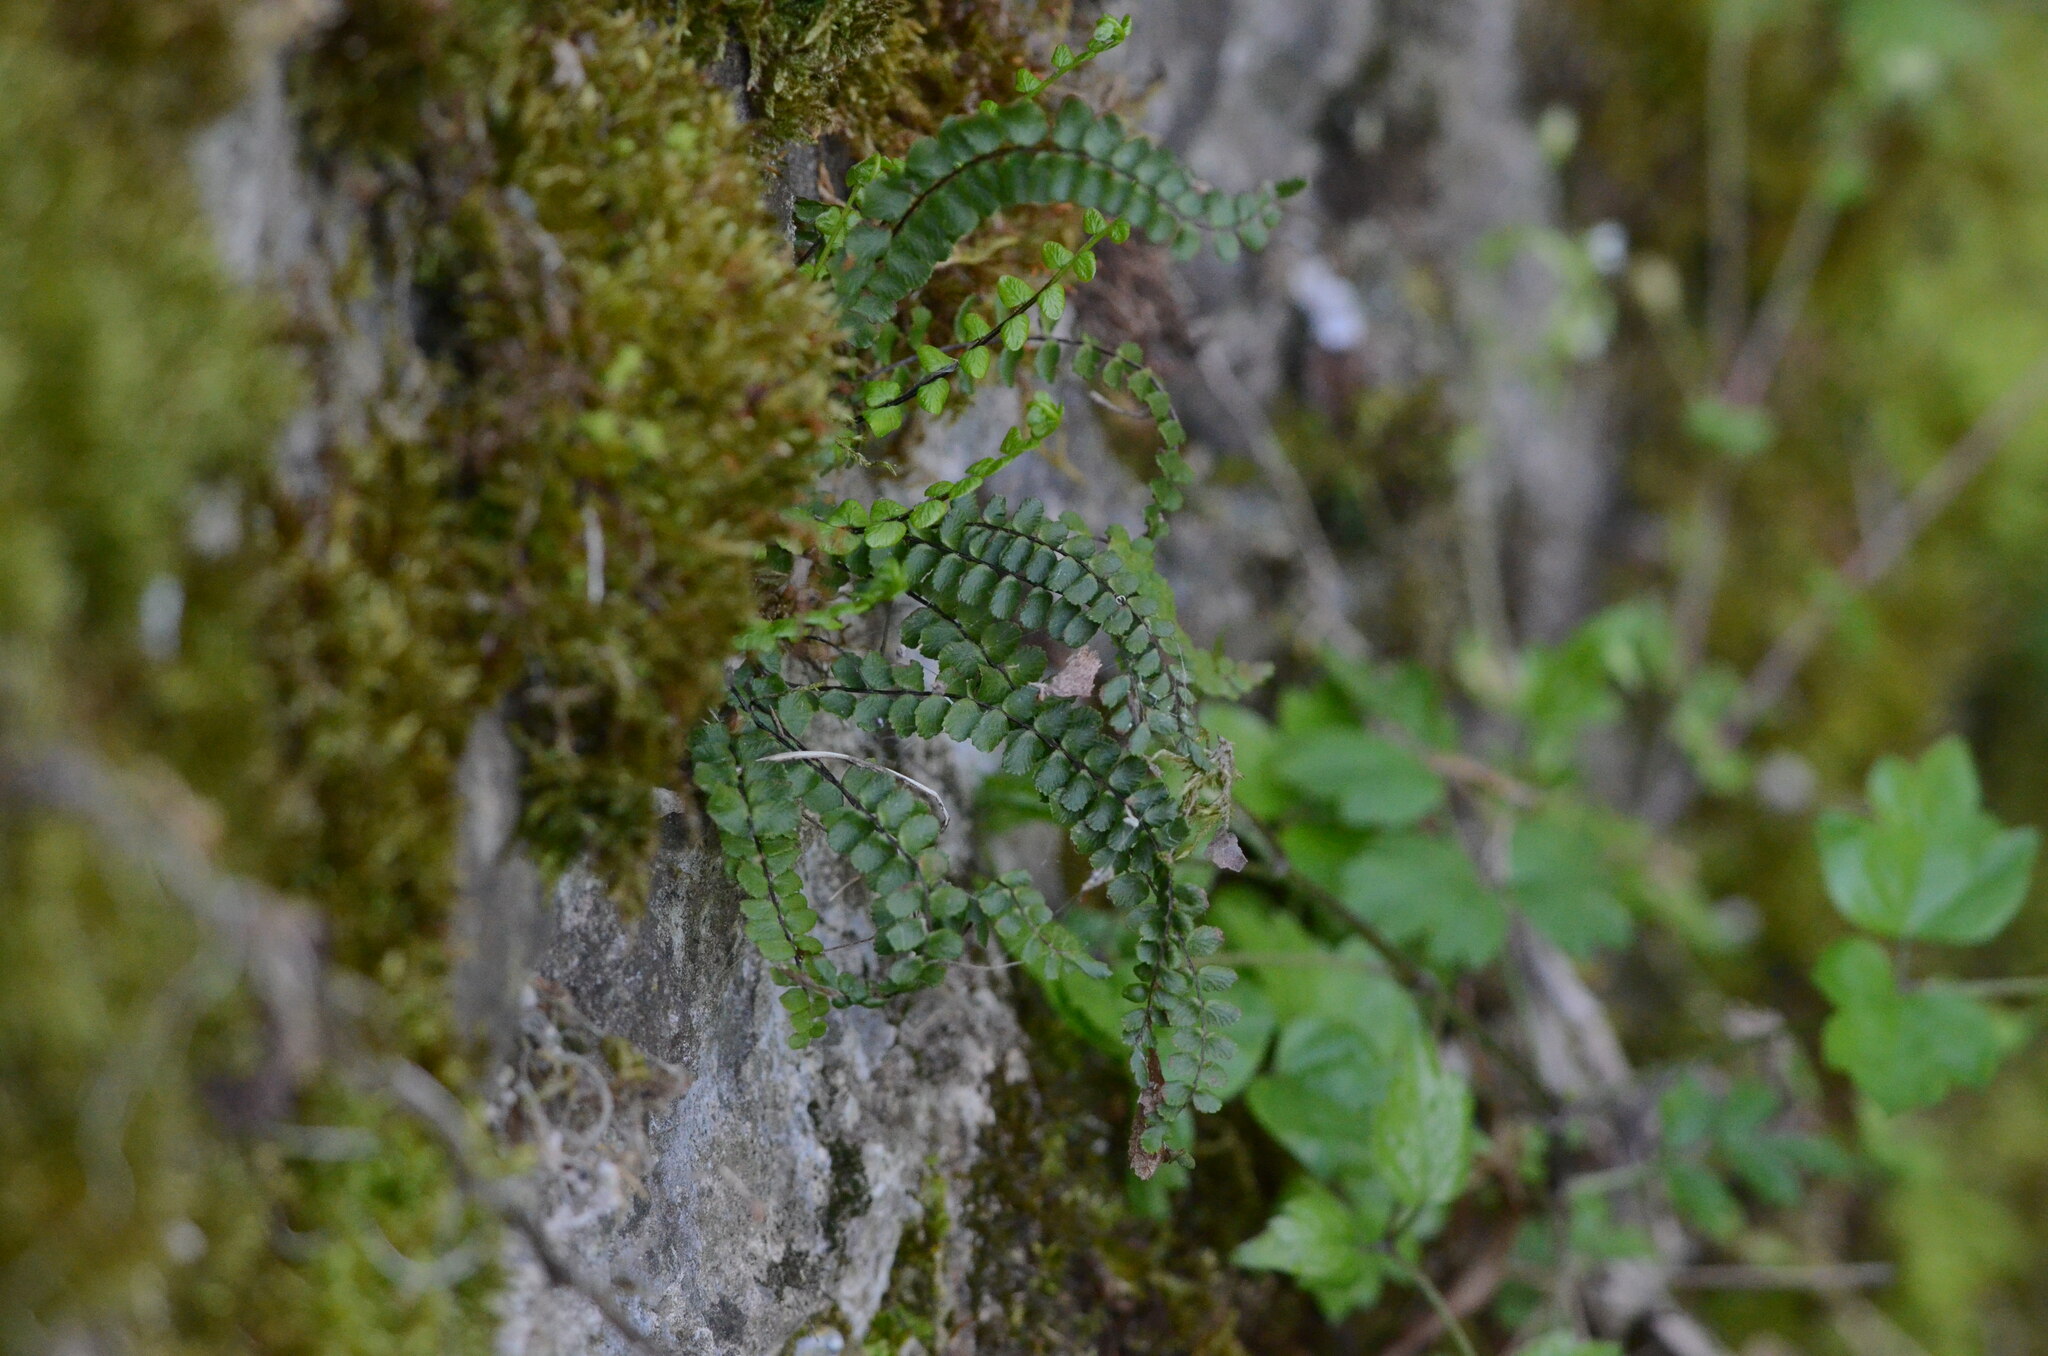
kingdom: Plantae
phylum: Tracheophyta
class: Polypodiopsida
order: Polypodiales
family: Aspleniaceae
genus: Asplenium
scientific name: Asplenium trichomanes
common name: Maidenhair spleenwort
